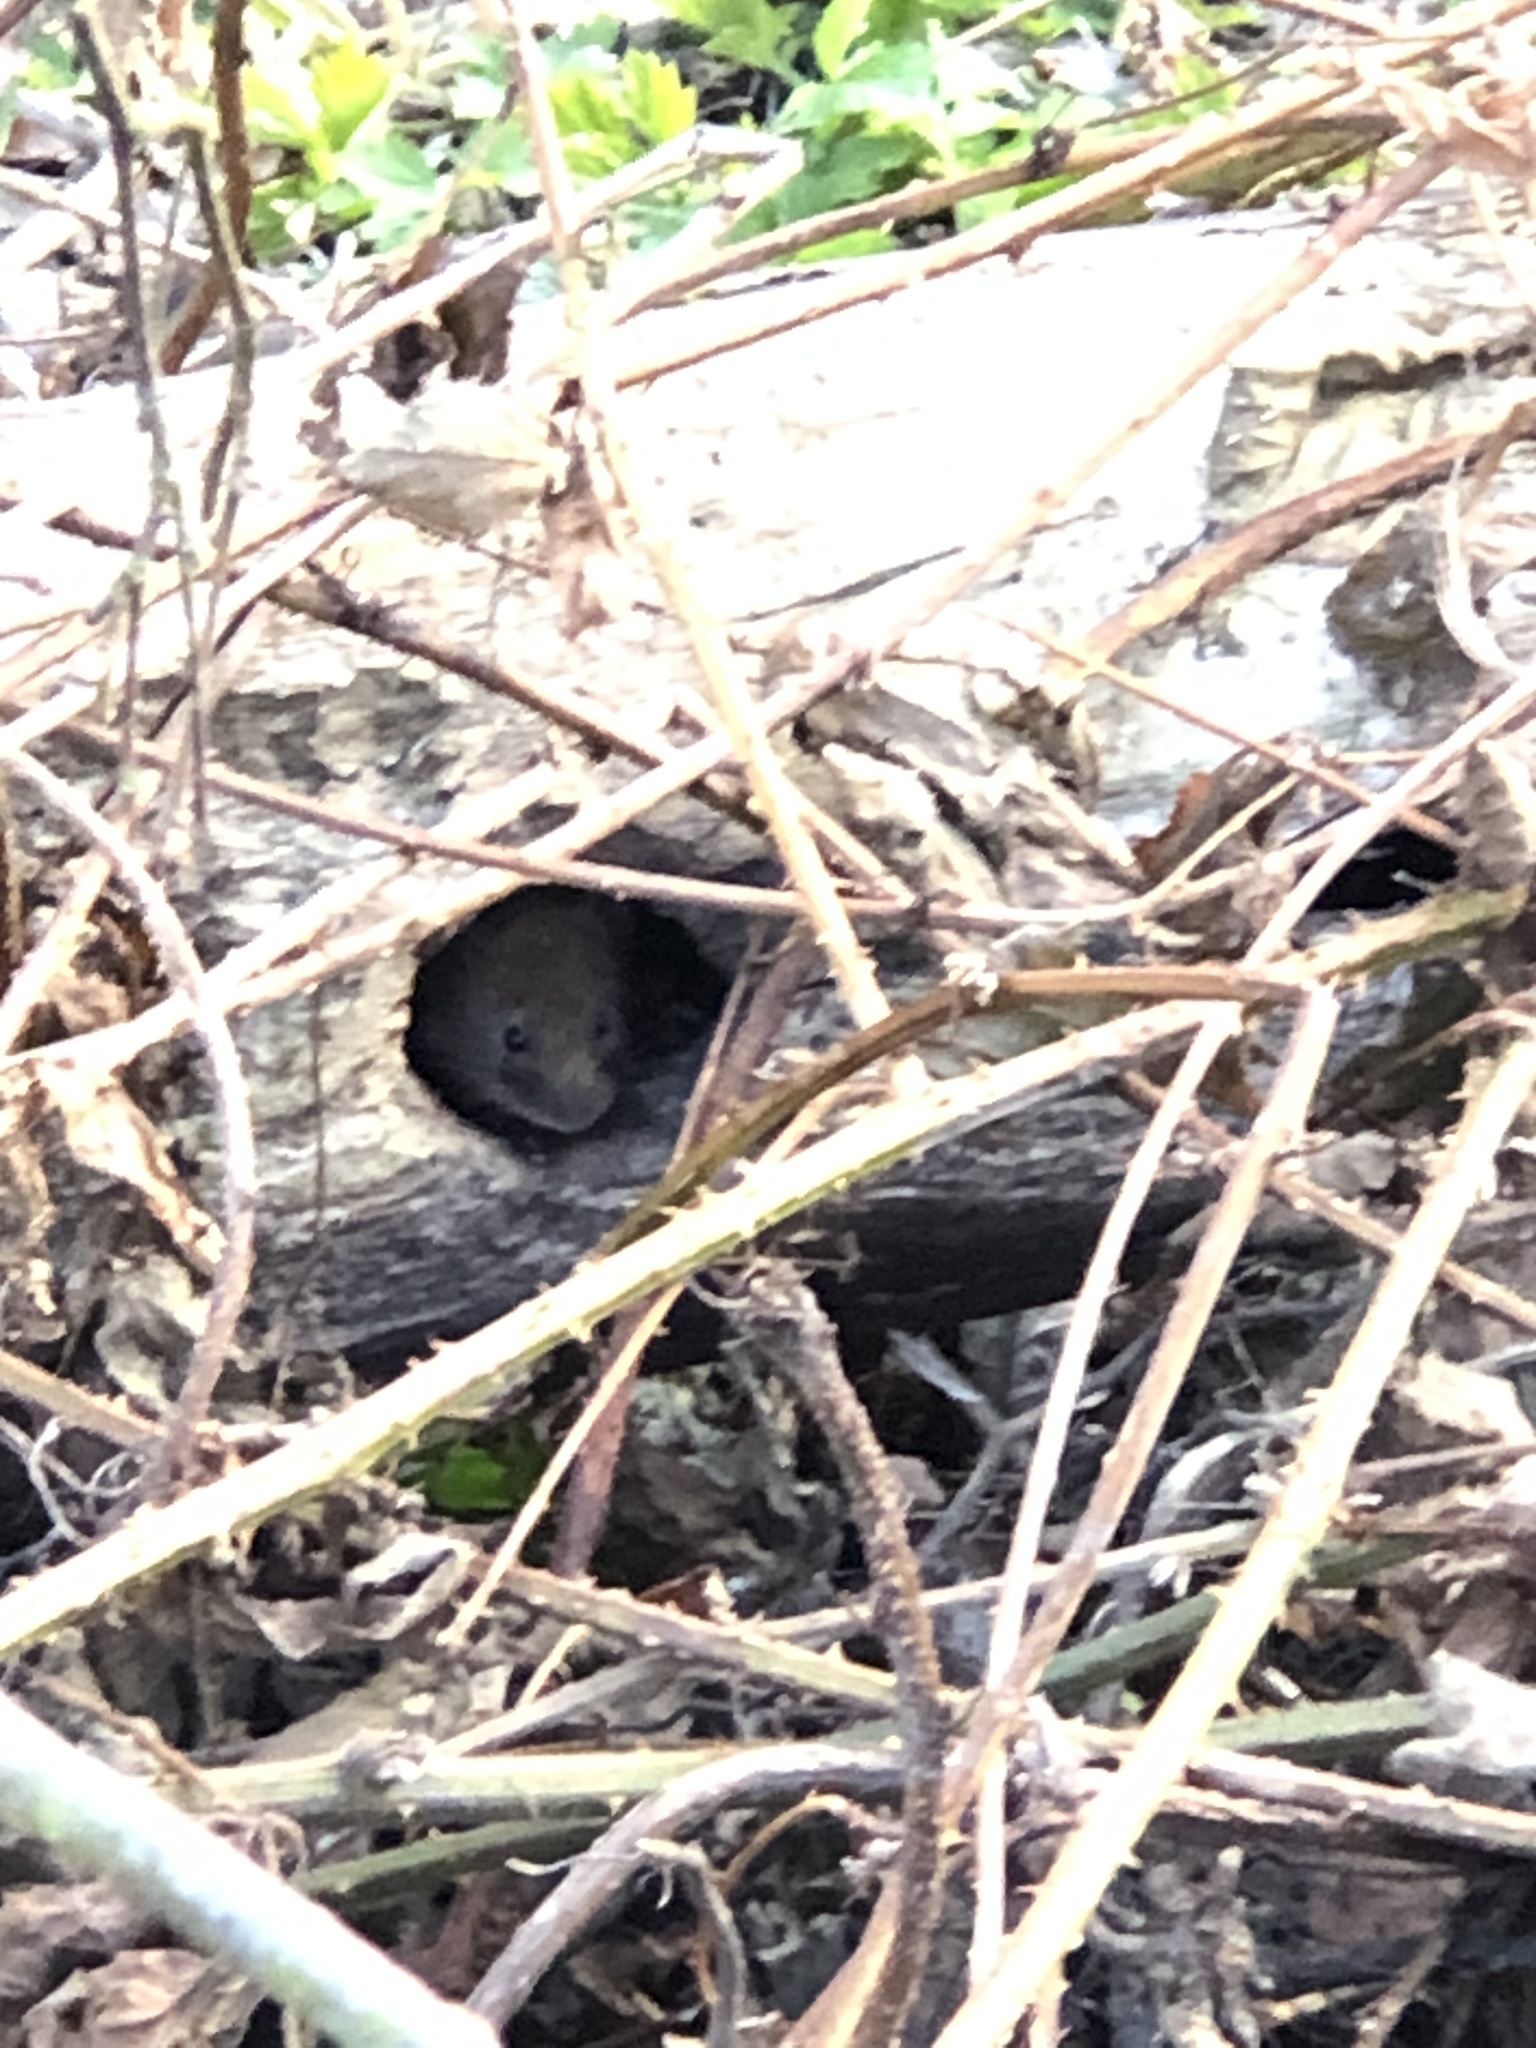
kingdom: Animalia
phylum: Chordata
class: Mammalia
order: Rodentia
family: Cricetidae
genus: Myodes
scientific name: Myodes glareolus
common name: Bank vole
